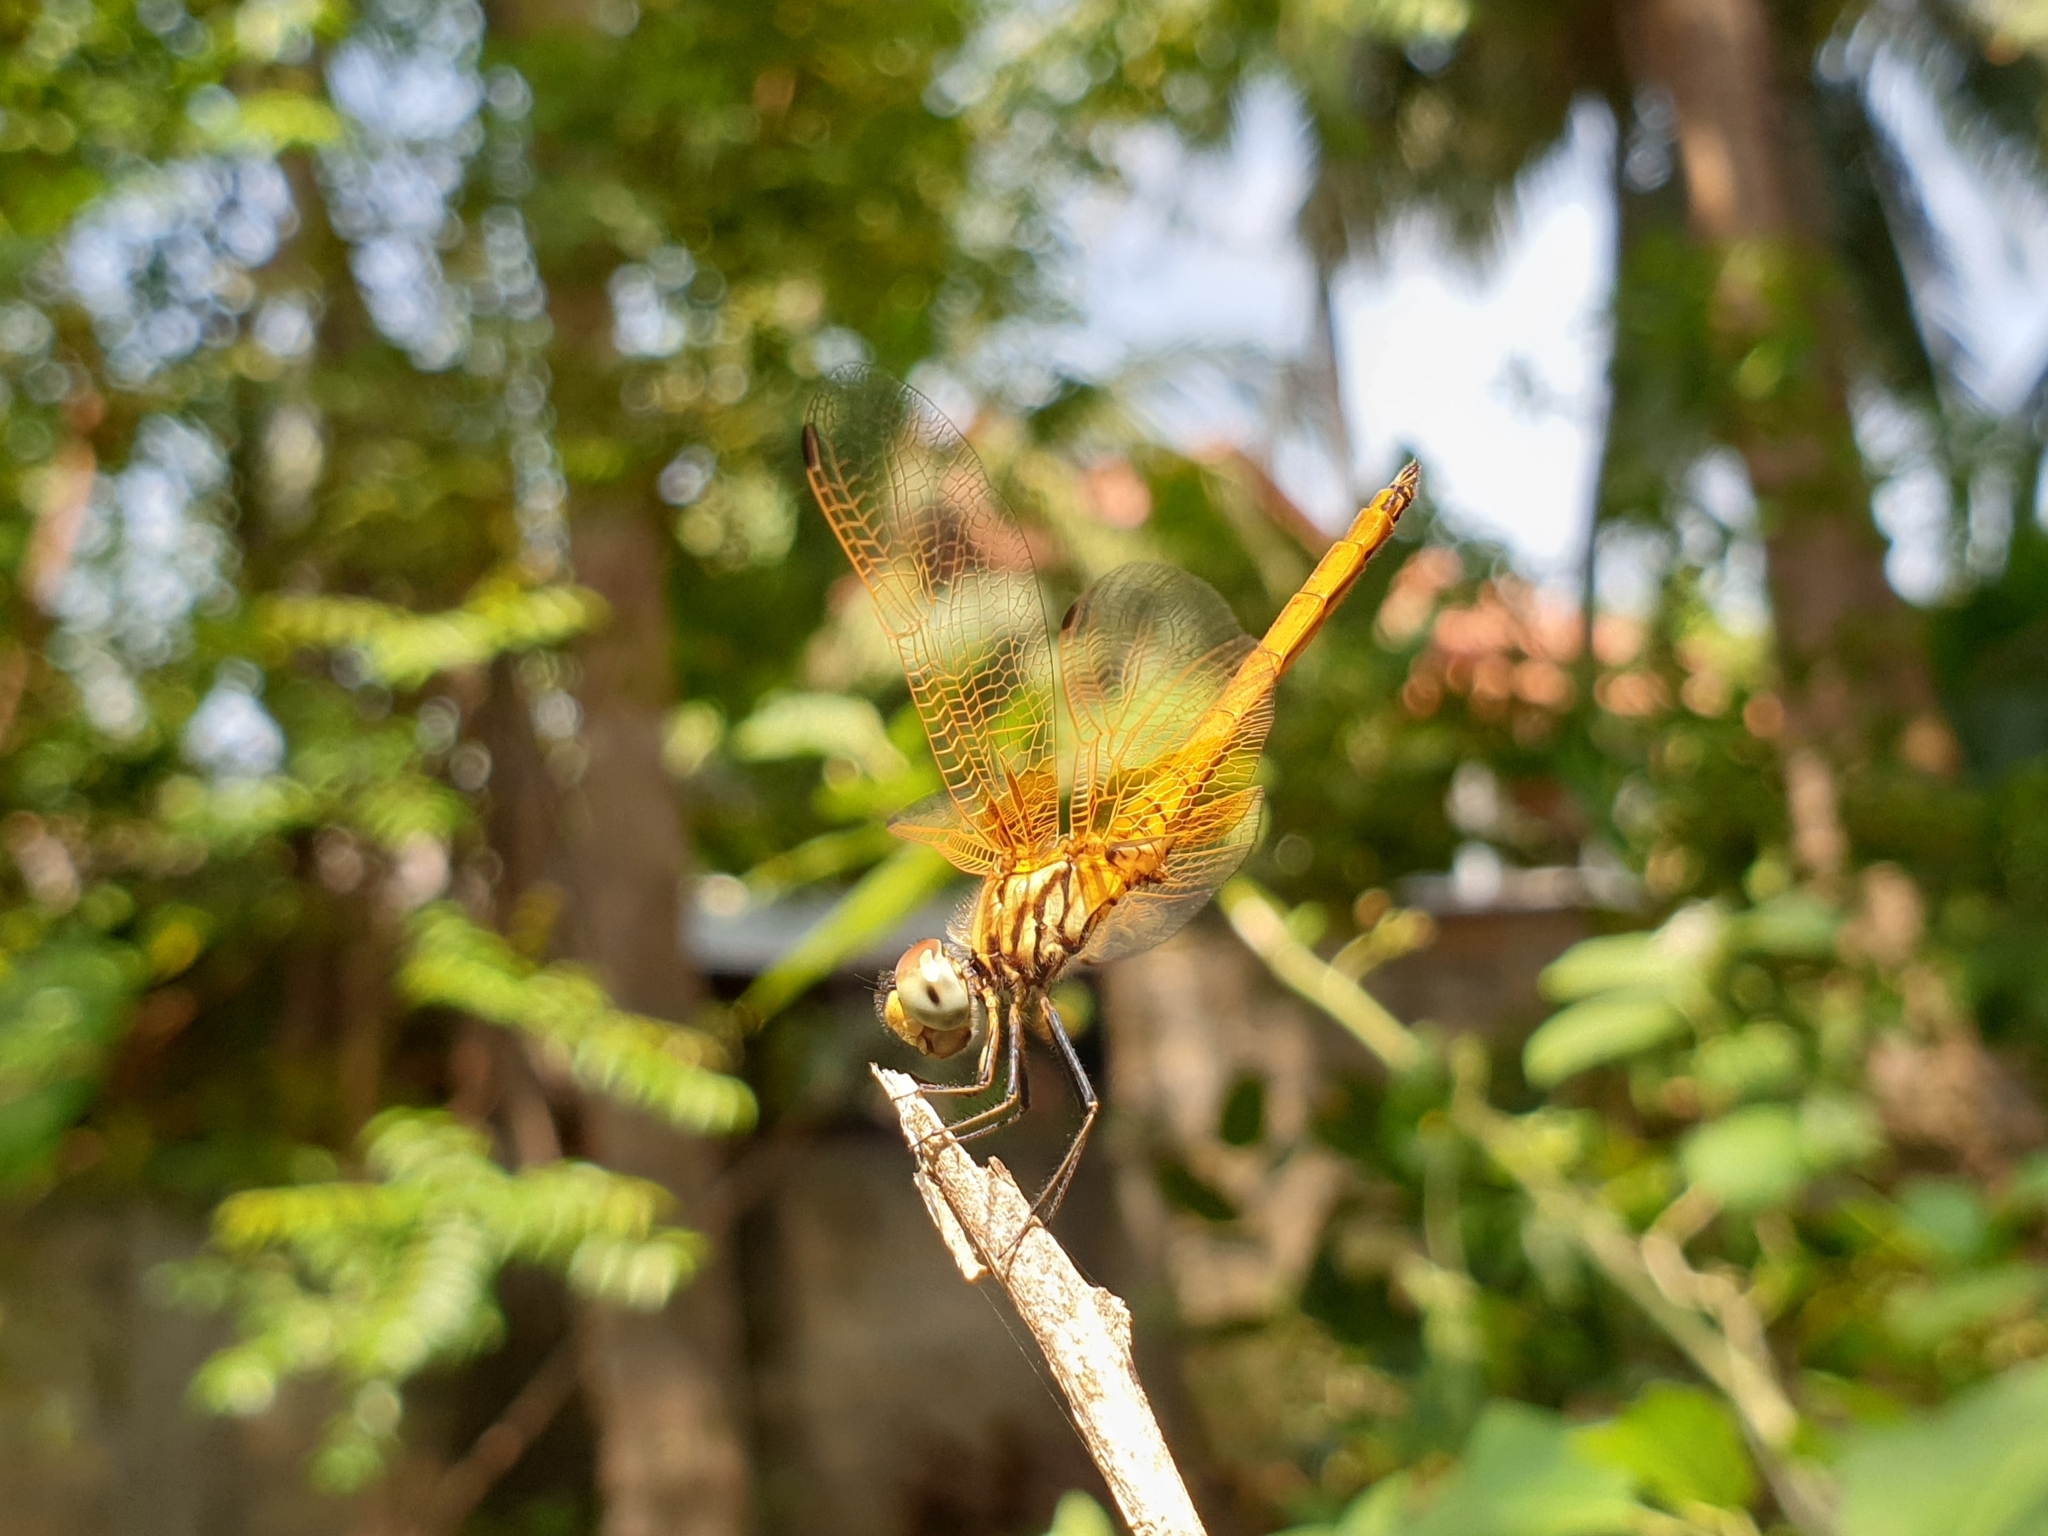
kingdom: Animalia
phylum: Arthropoda
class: Insecta
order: Odonata
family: Libellulidae
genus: Trithemis
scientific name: Trithemis aurora
